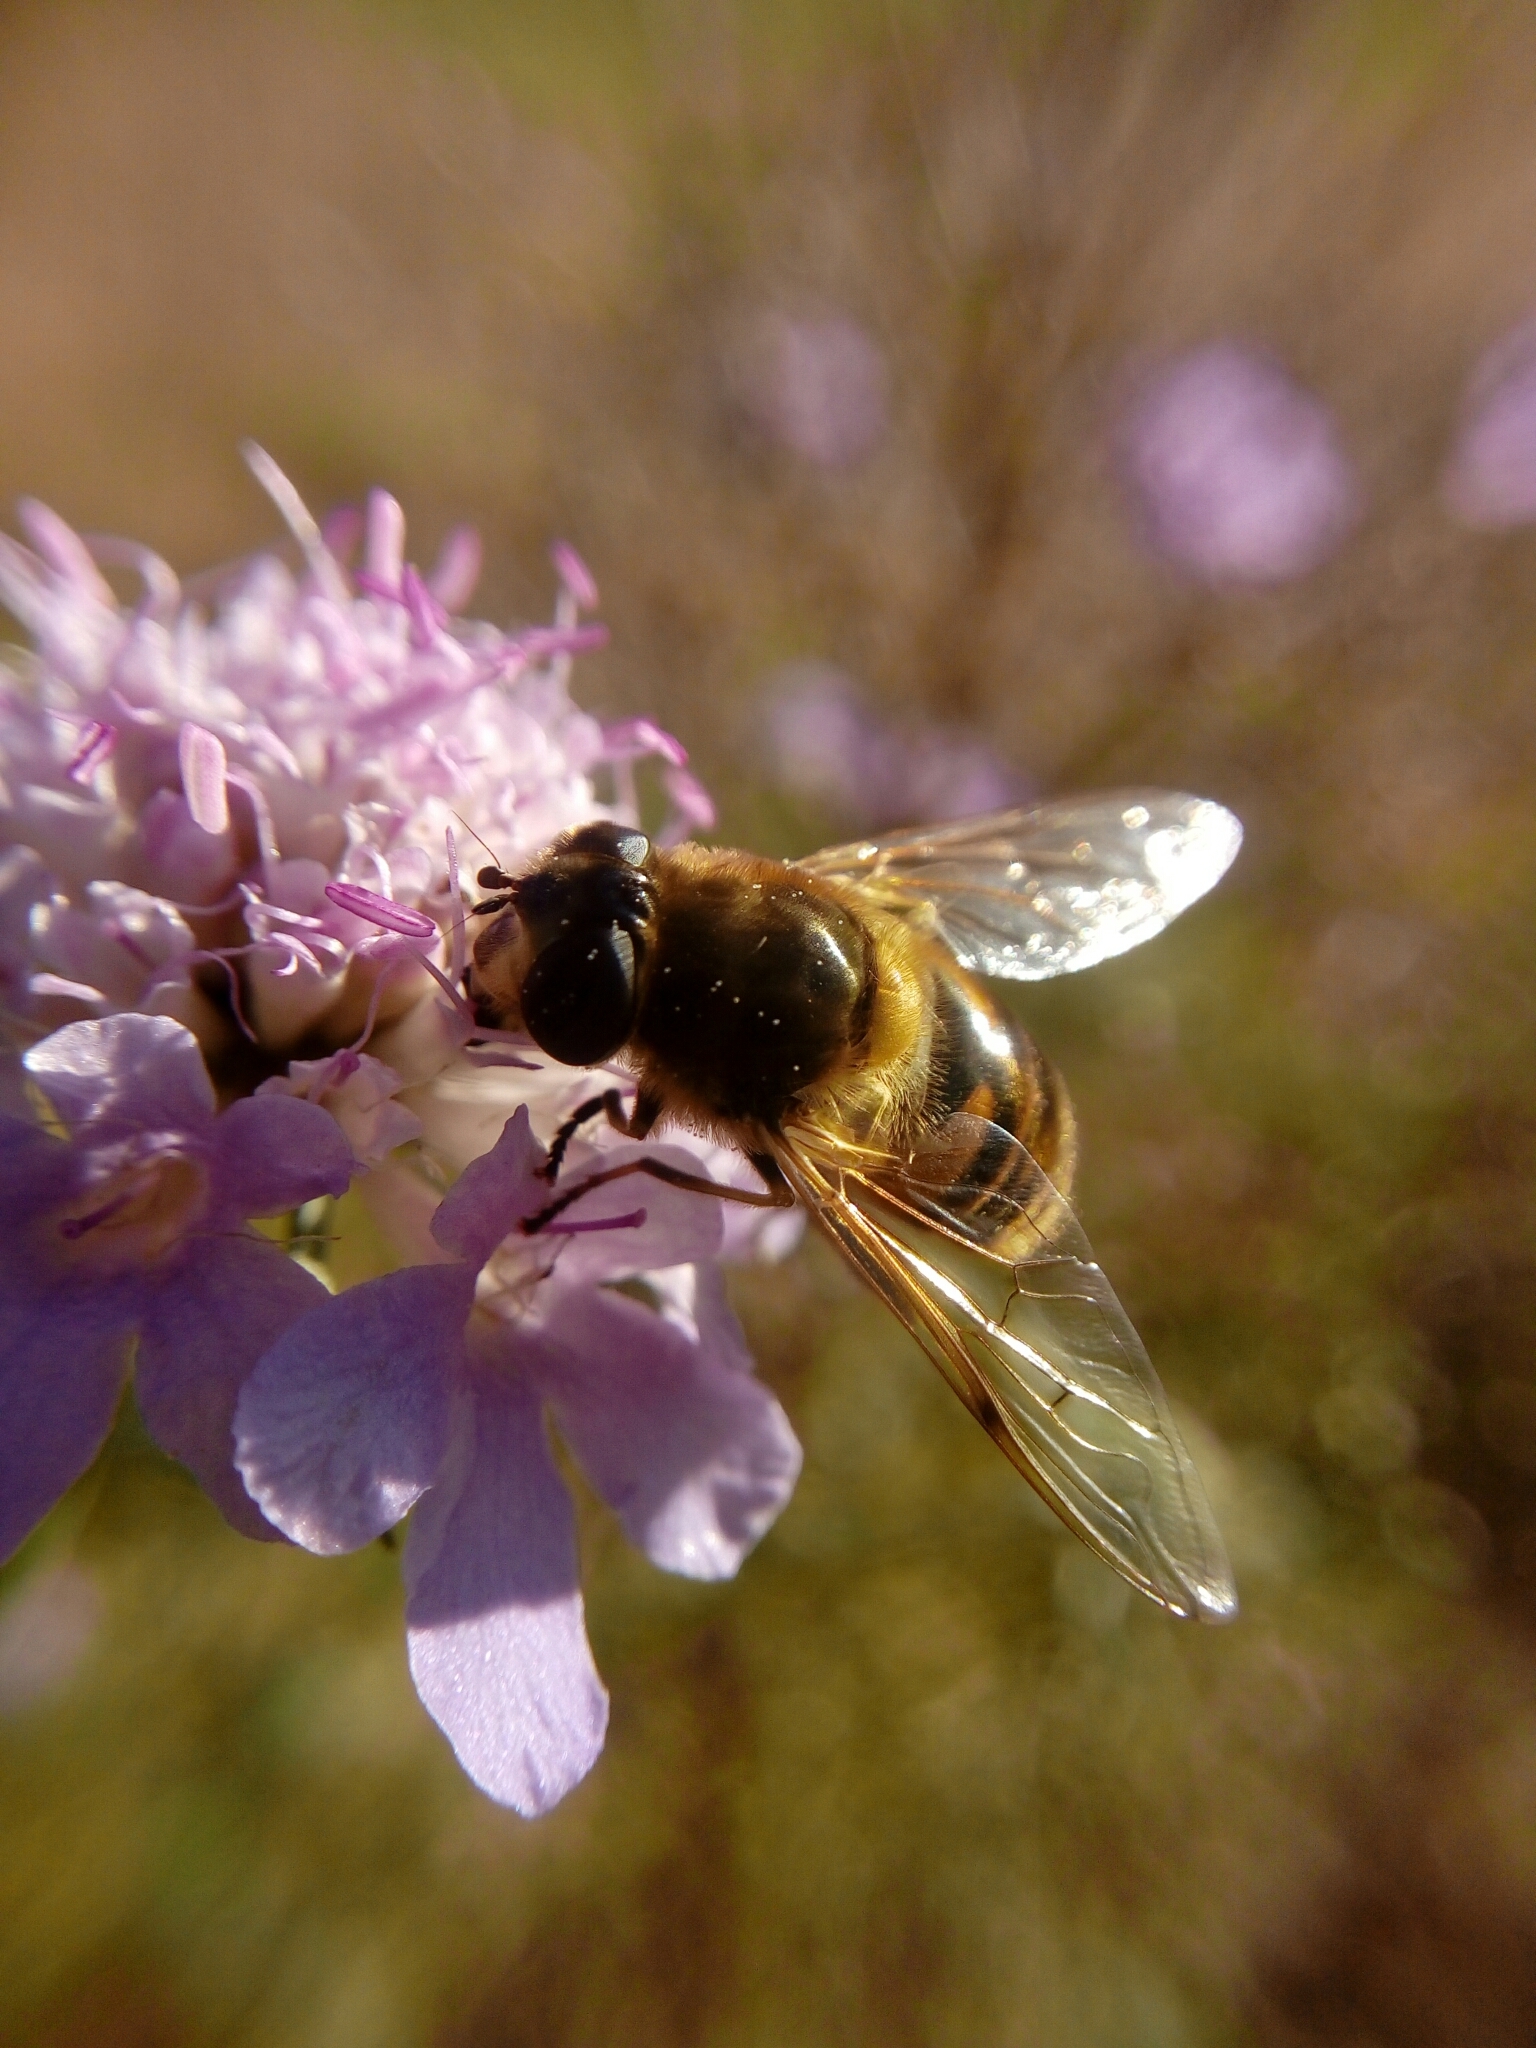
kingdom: Animalia
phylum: Arthropoda
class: Insecta
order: Diptera
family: Syrphidae
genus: Eristalis
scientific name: Eristalis tenax
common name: Drone fly
